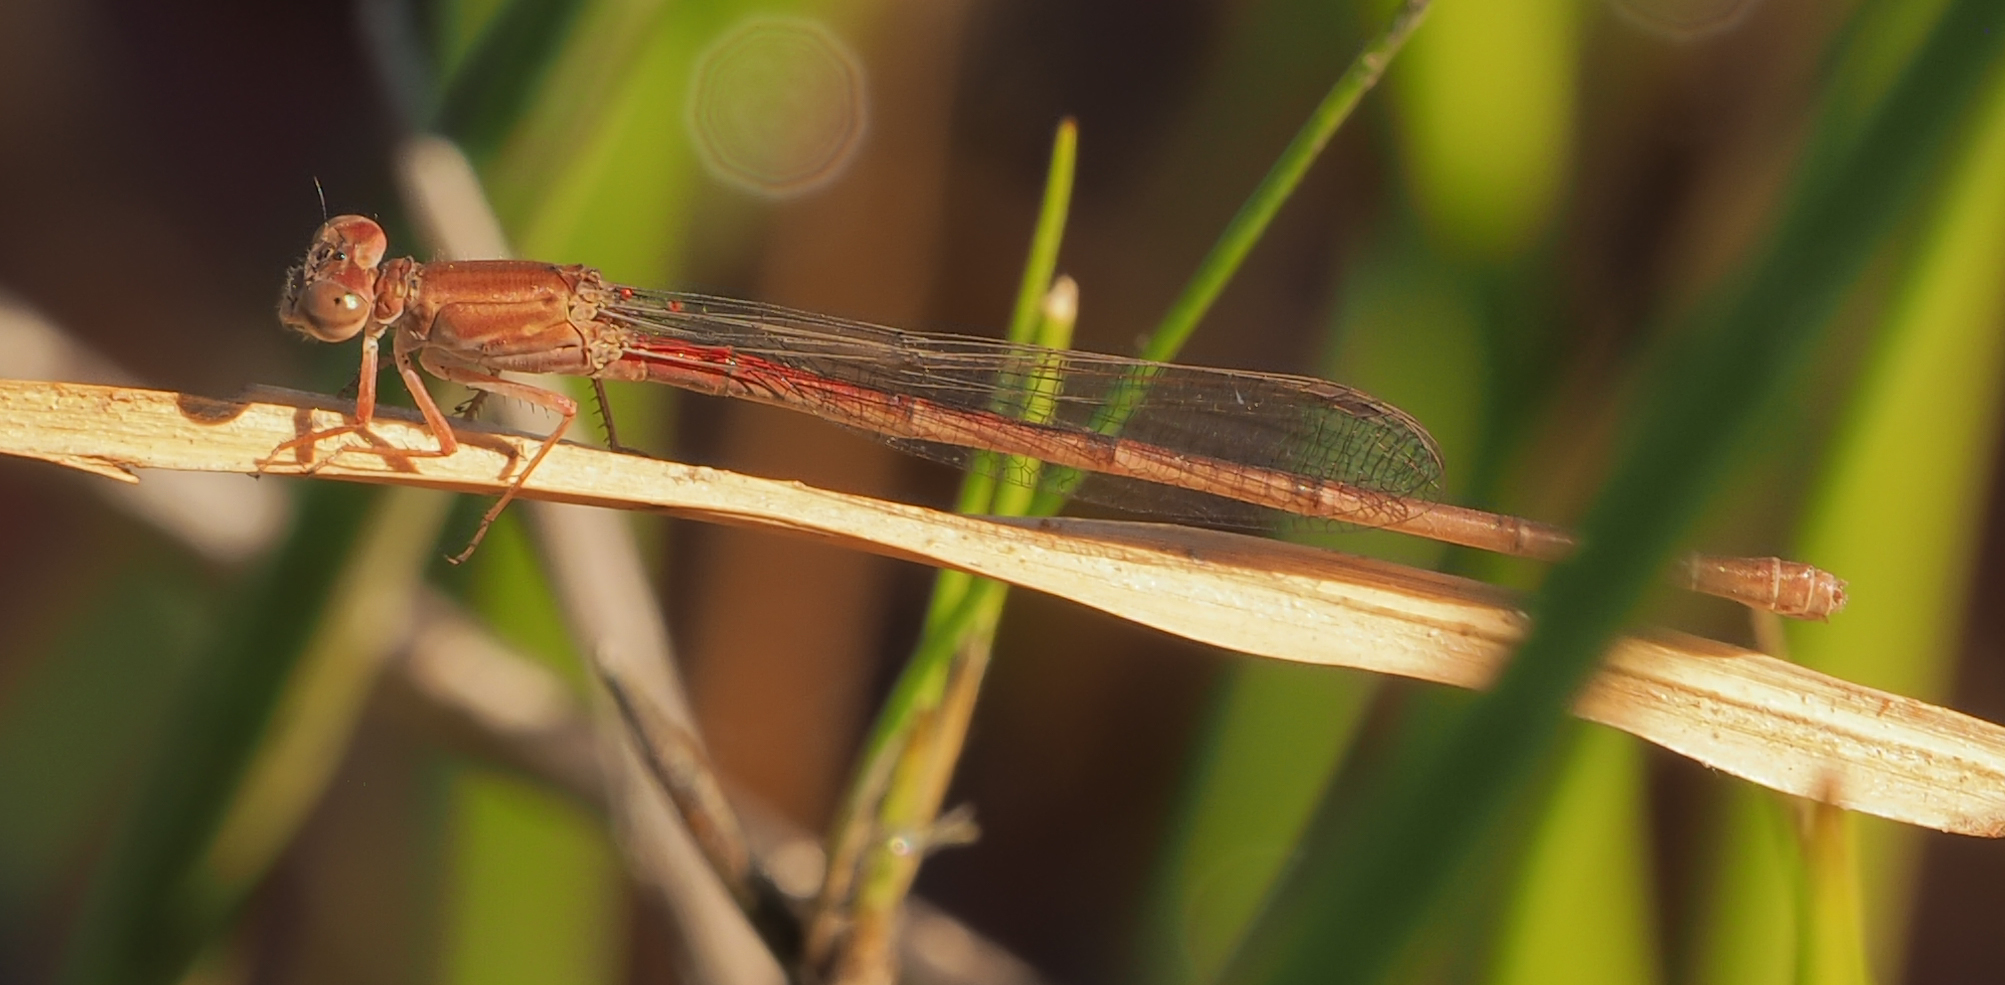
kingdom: Animalia
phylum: Arthropoda
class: Insecta
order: Odonata
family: Coenagrionidae
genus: Ceriagrion
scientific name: Ceriagrion katamborae
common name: White-faced waxtail
